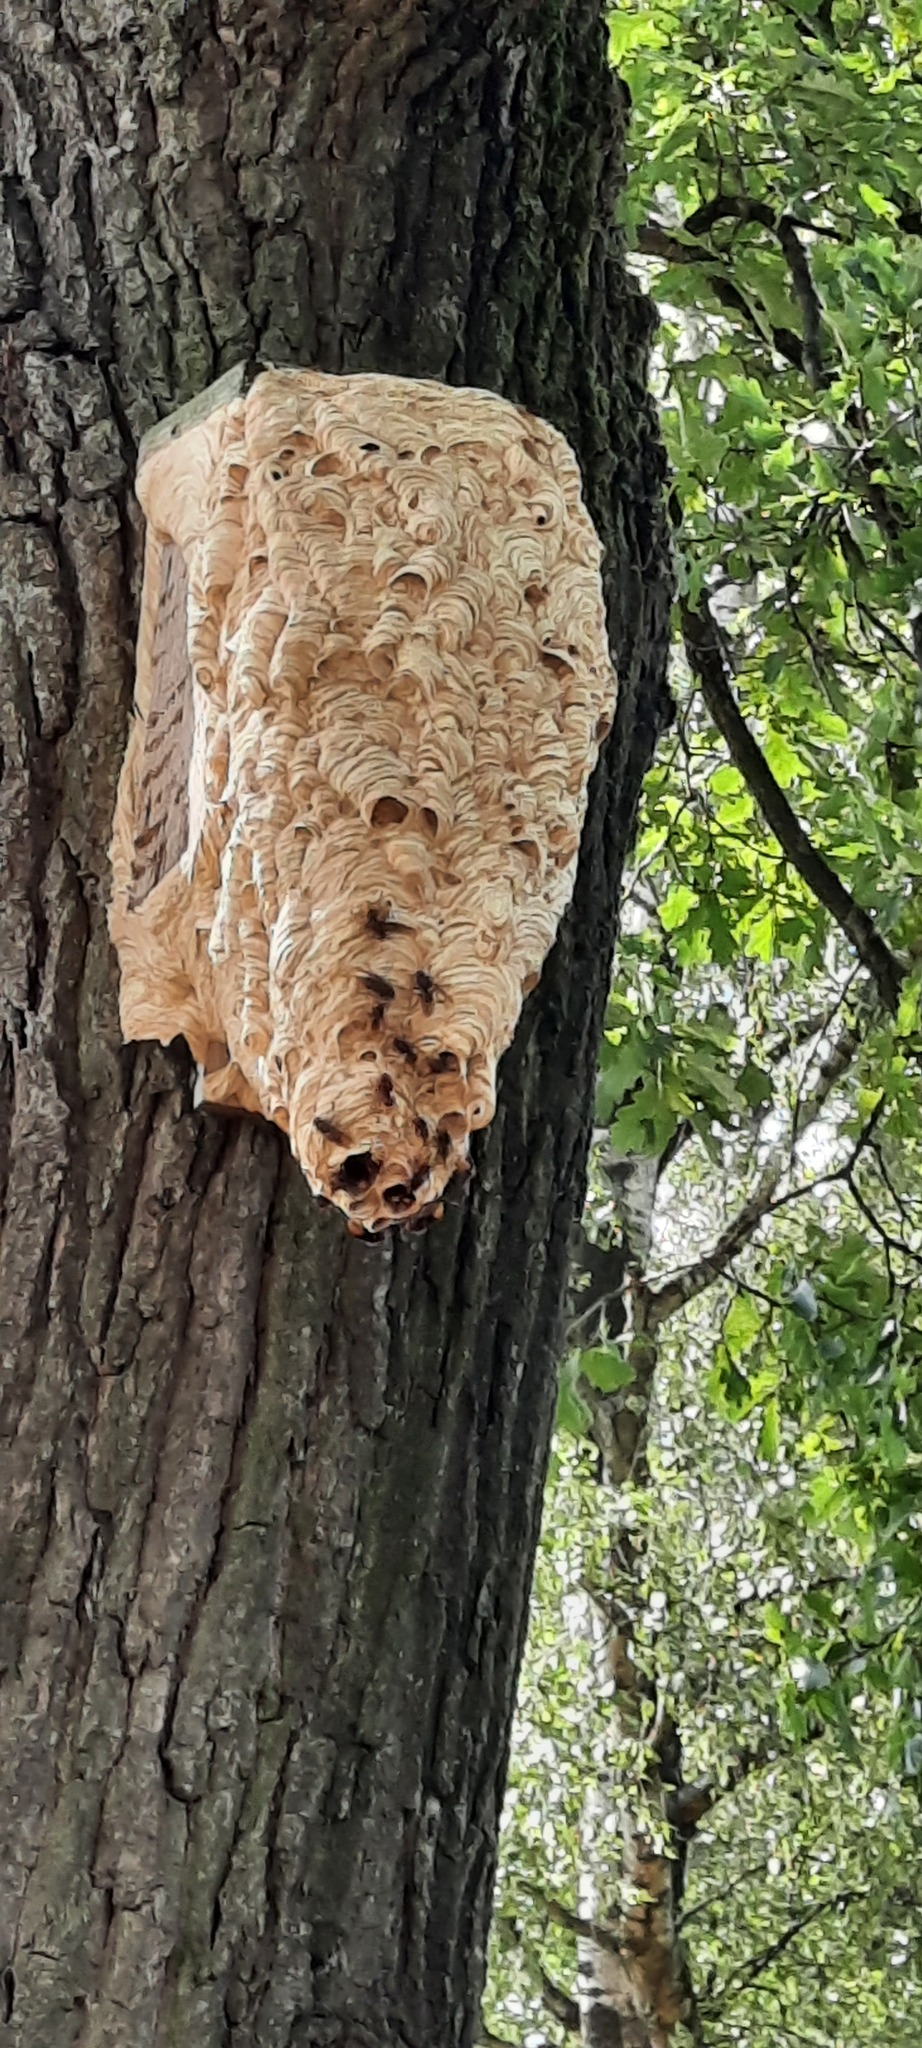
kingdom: Animalia
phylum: Arthropoda
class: Insecta
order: Hymenoptera
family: Vespidae
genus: Vespa
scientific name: Vespa crabro
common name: Hornet
